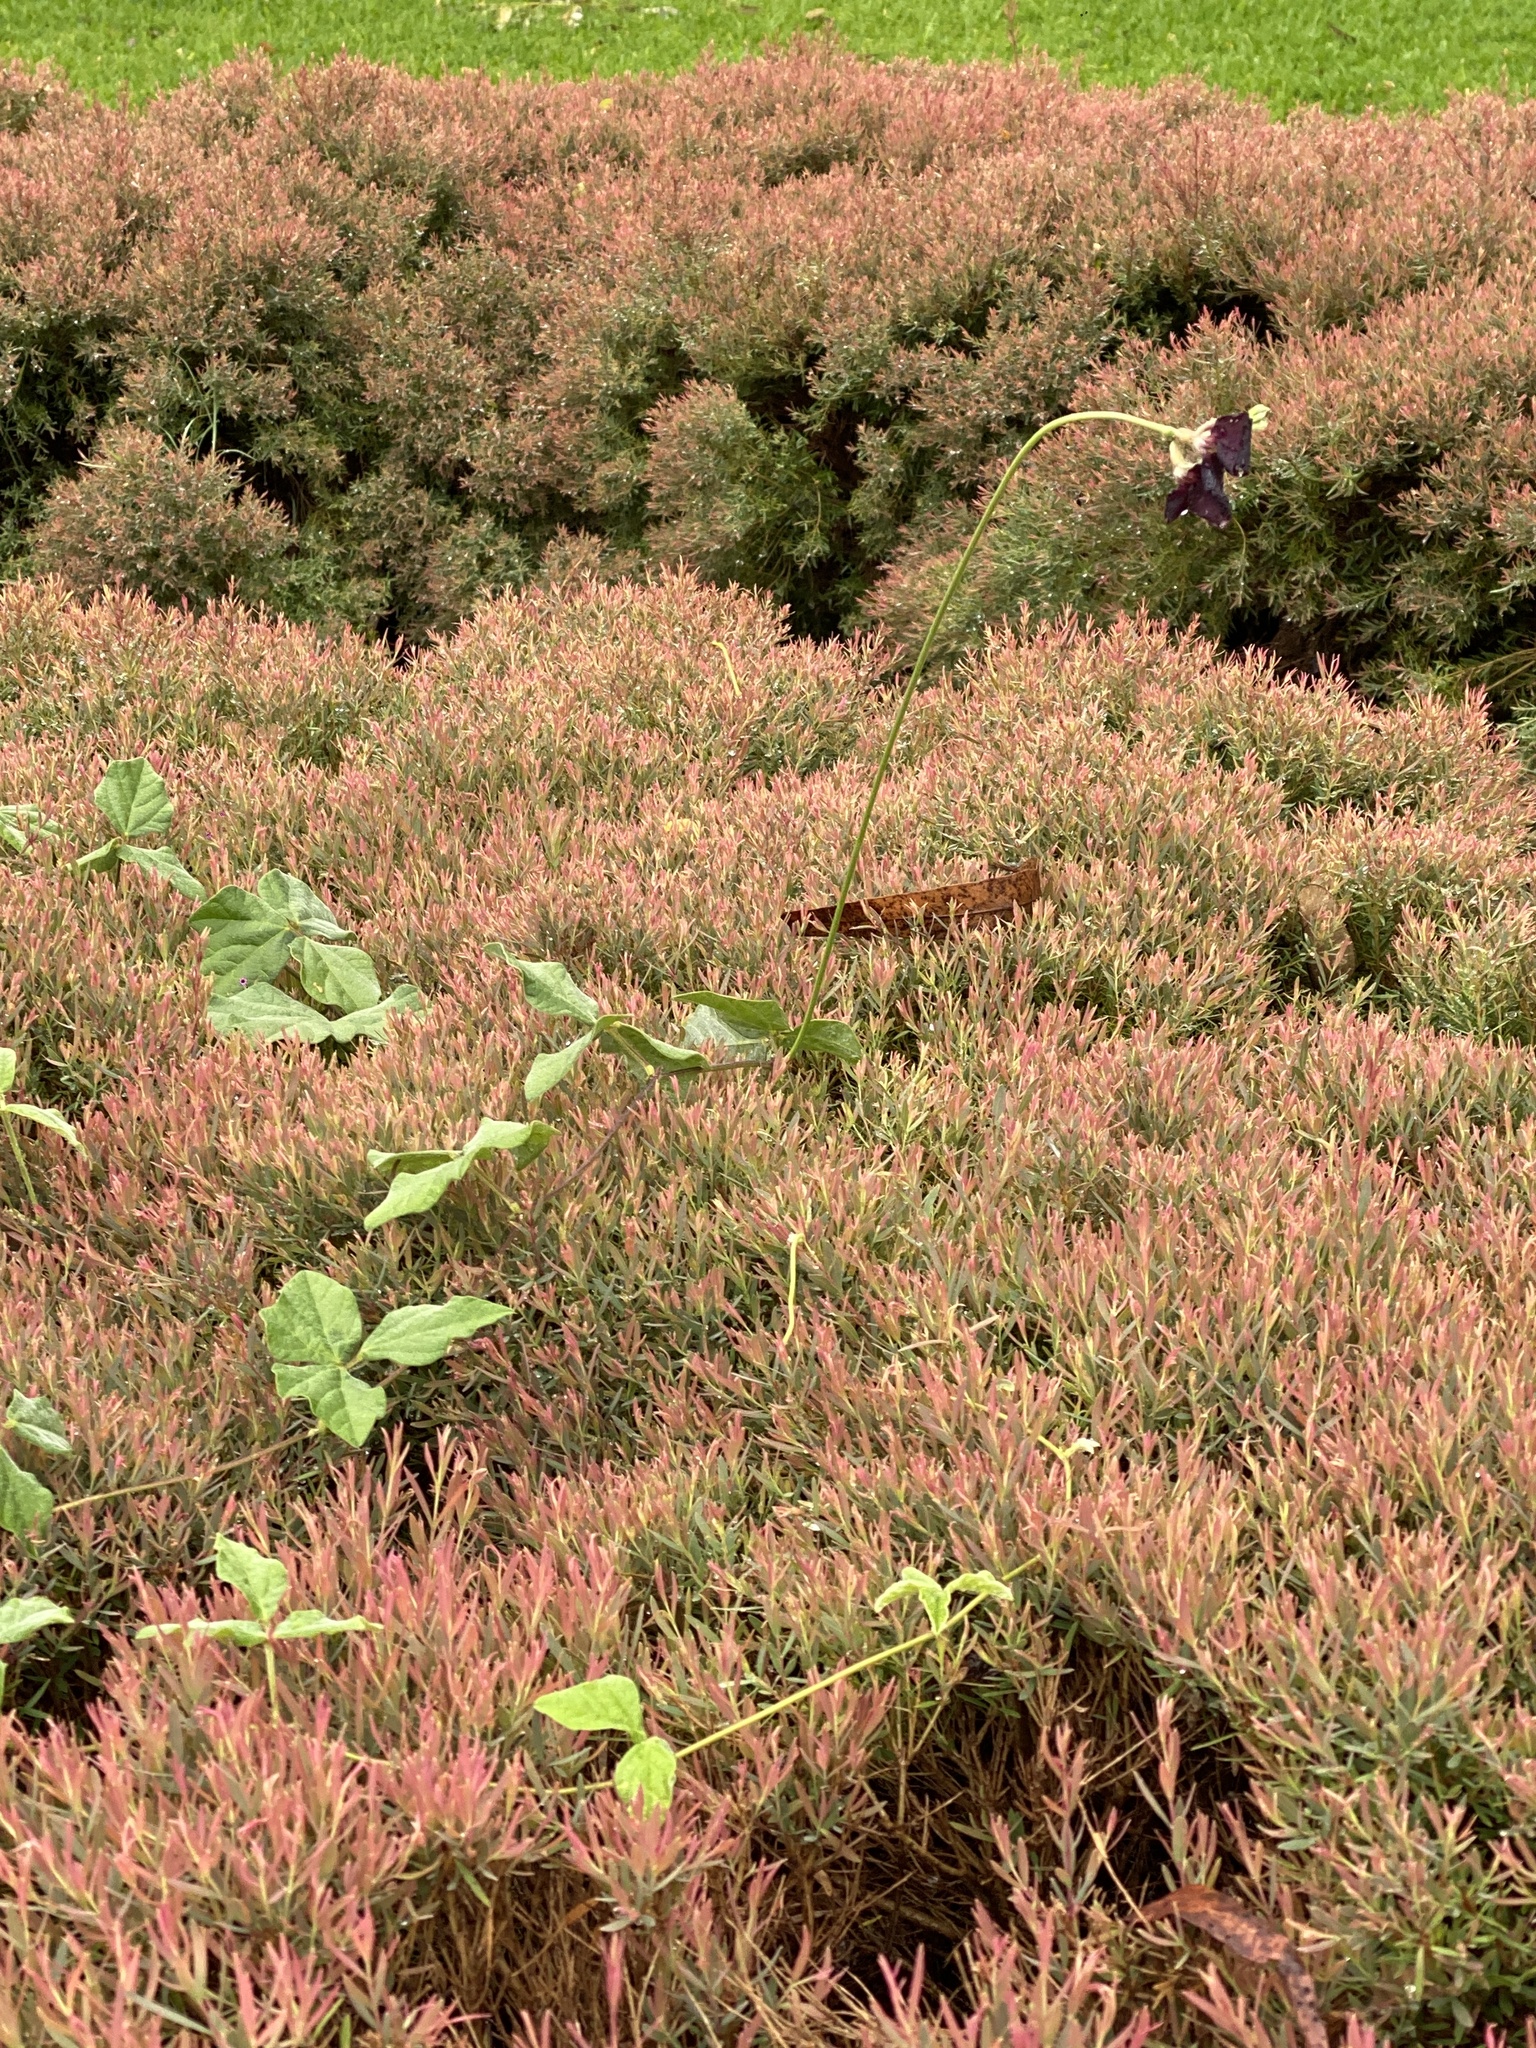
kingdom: Plantae
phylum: Tracheophyta
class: Magnoliopsida
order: Fabales
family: Fabaceae
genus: Macroptilium
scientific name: Macroptilium atropurpureum
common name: Purple bushbean
